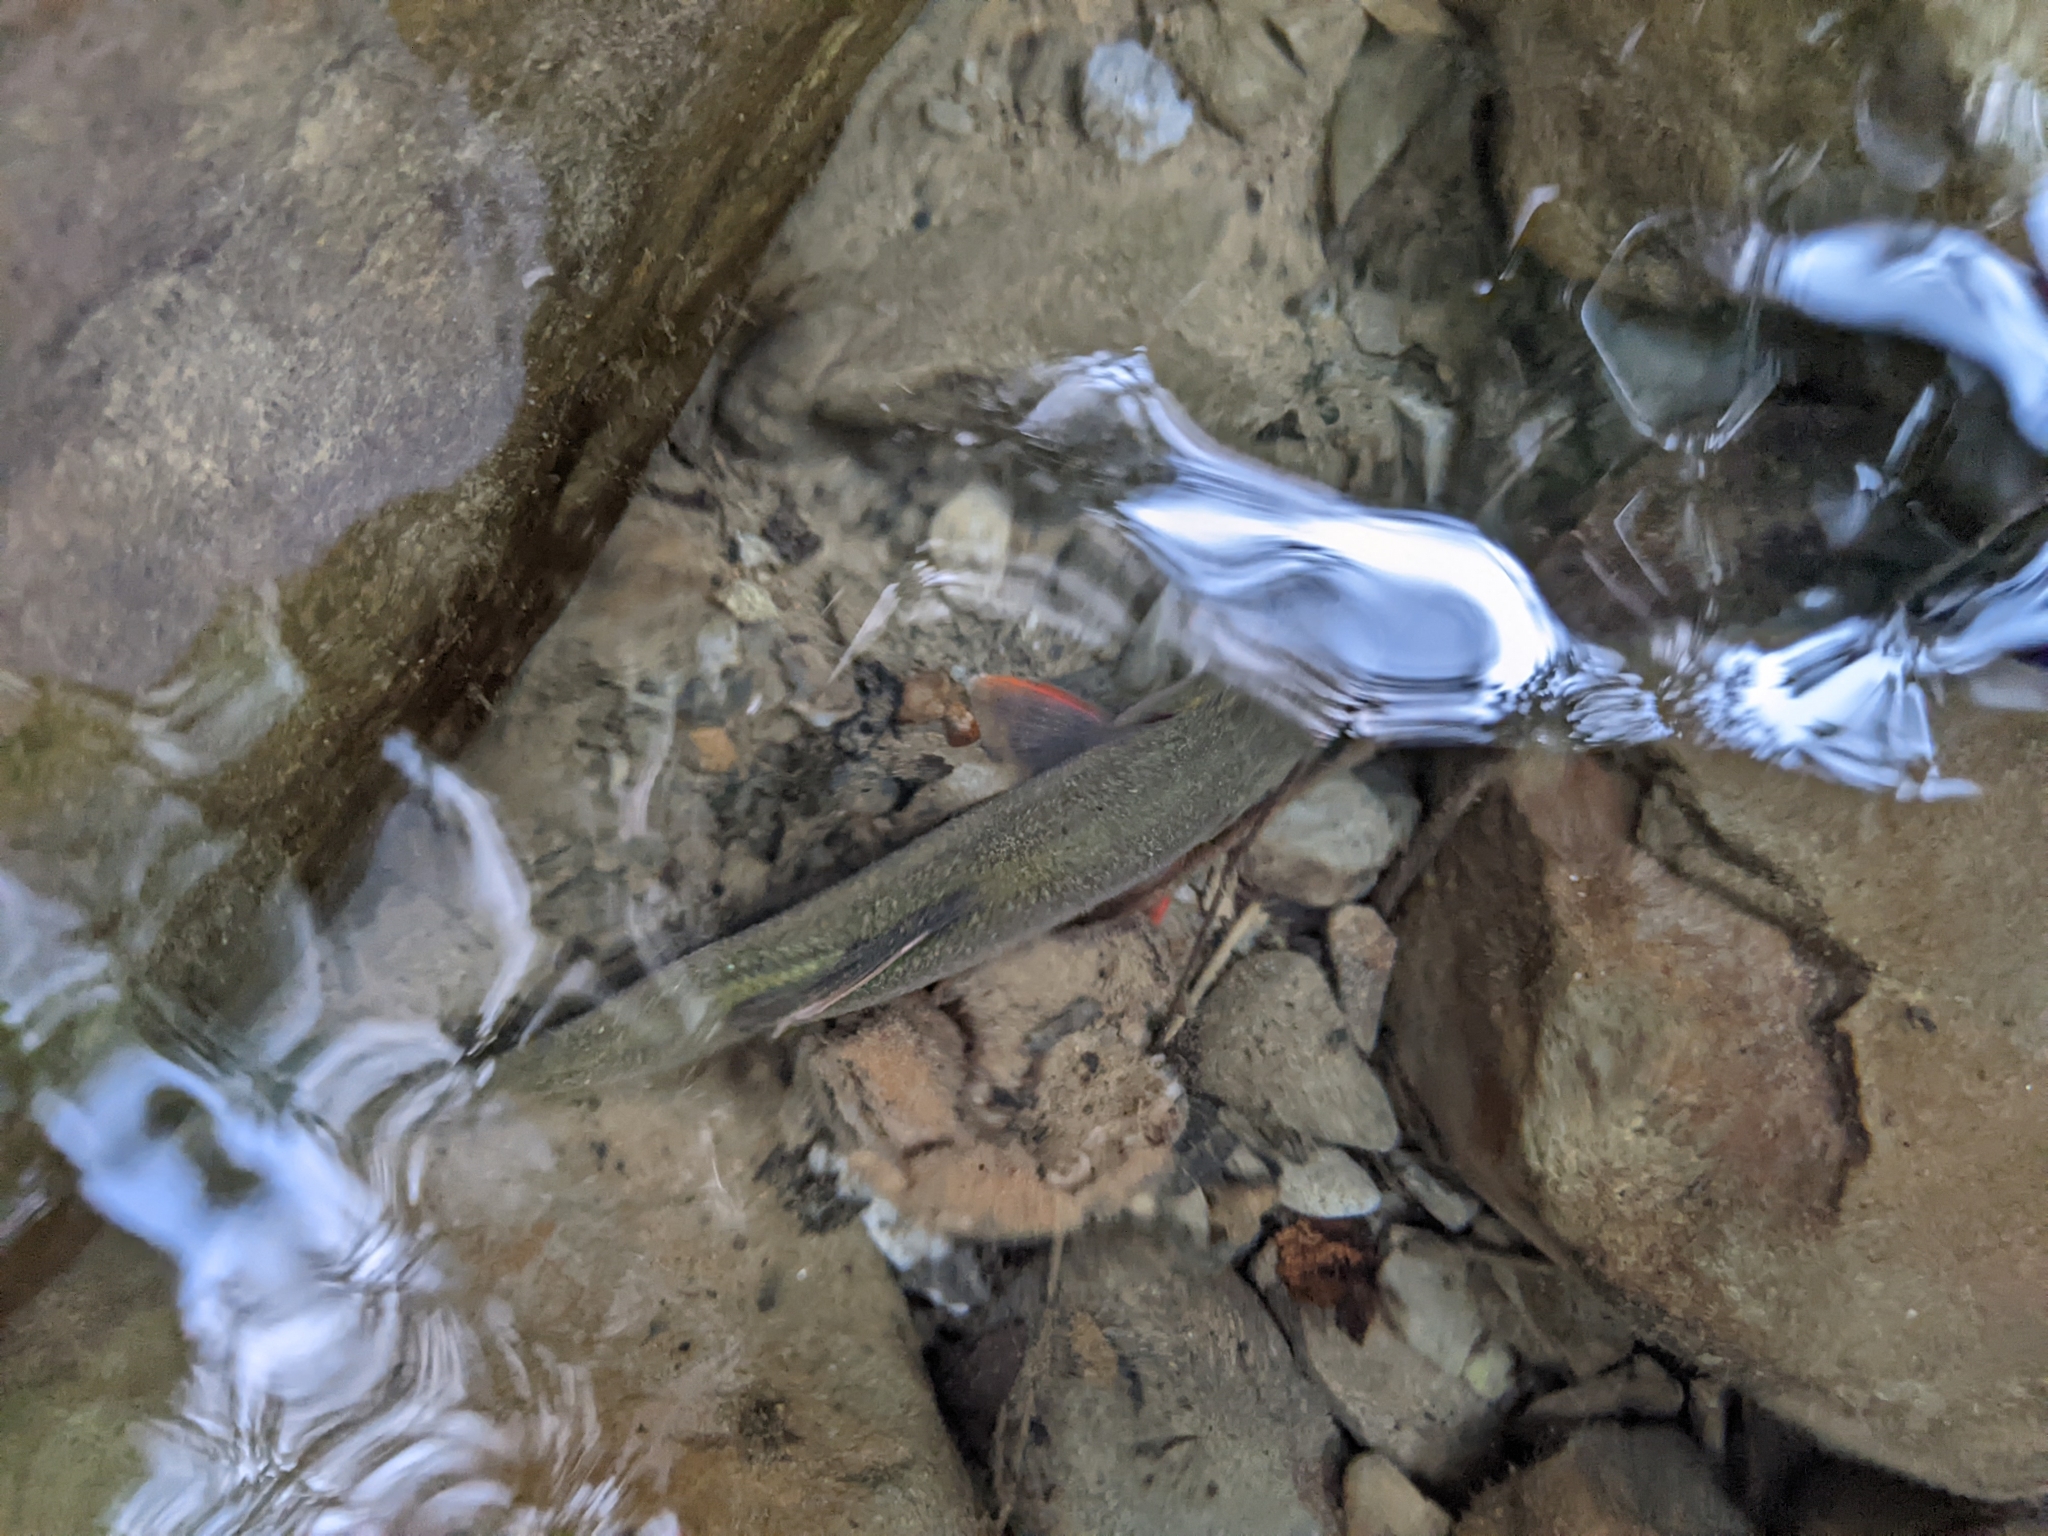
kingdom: Animalia
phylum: Chordata
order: Cypriniformes
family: Cyprinidae
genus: Opsariichthys
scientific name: Opsariichthys pachycephalus
